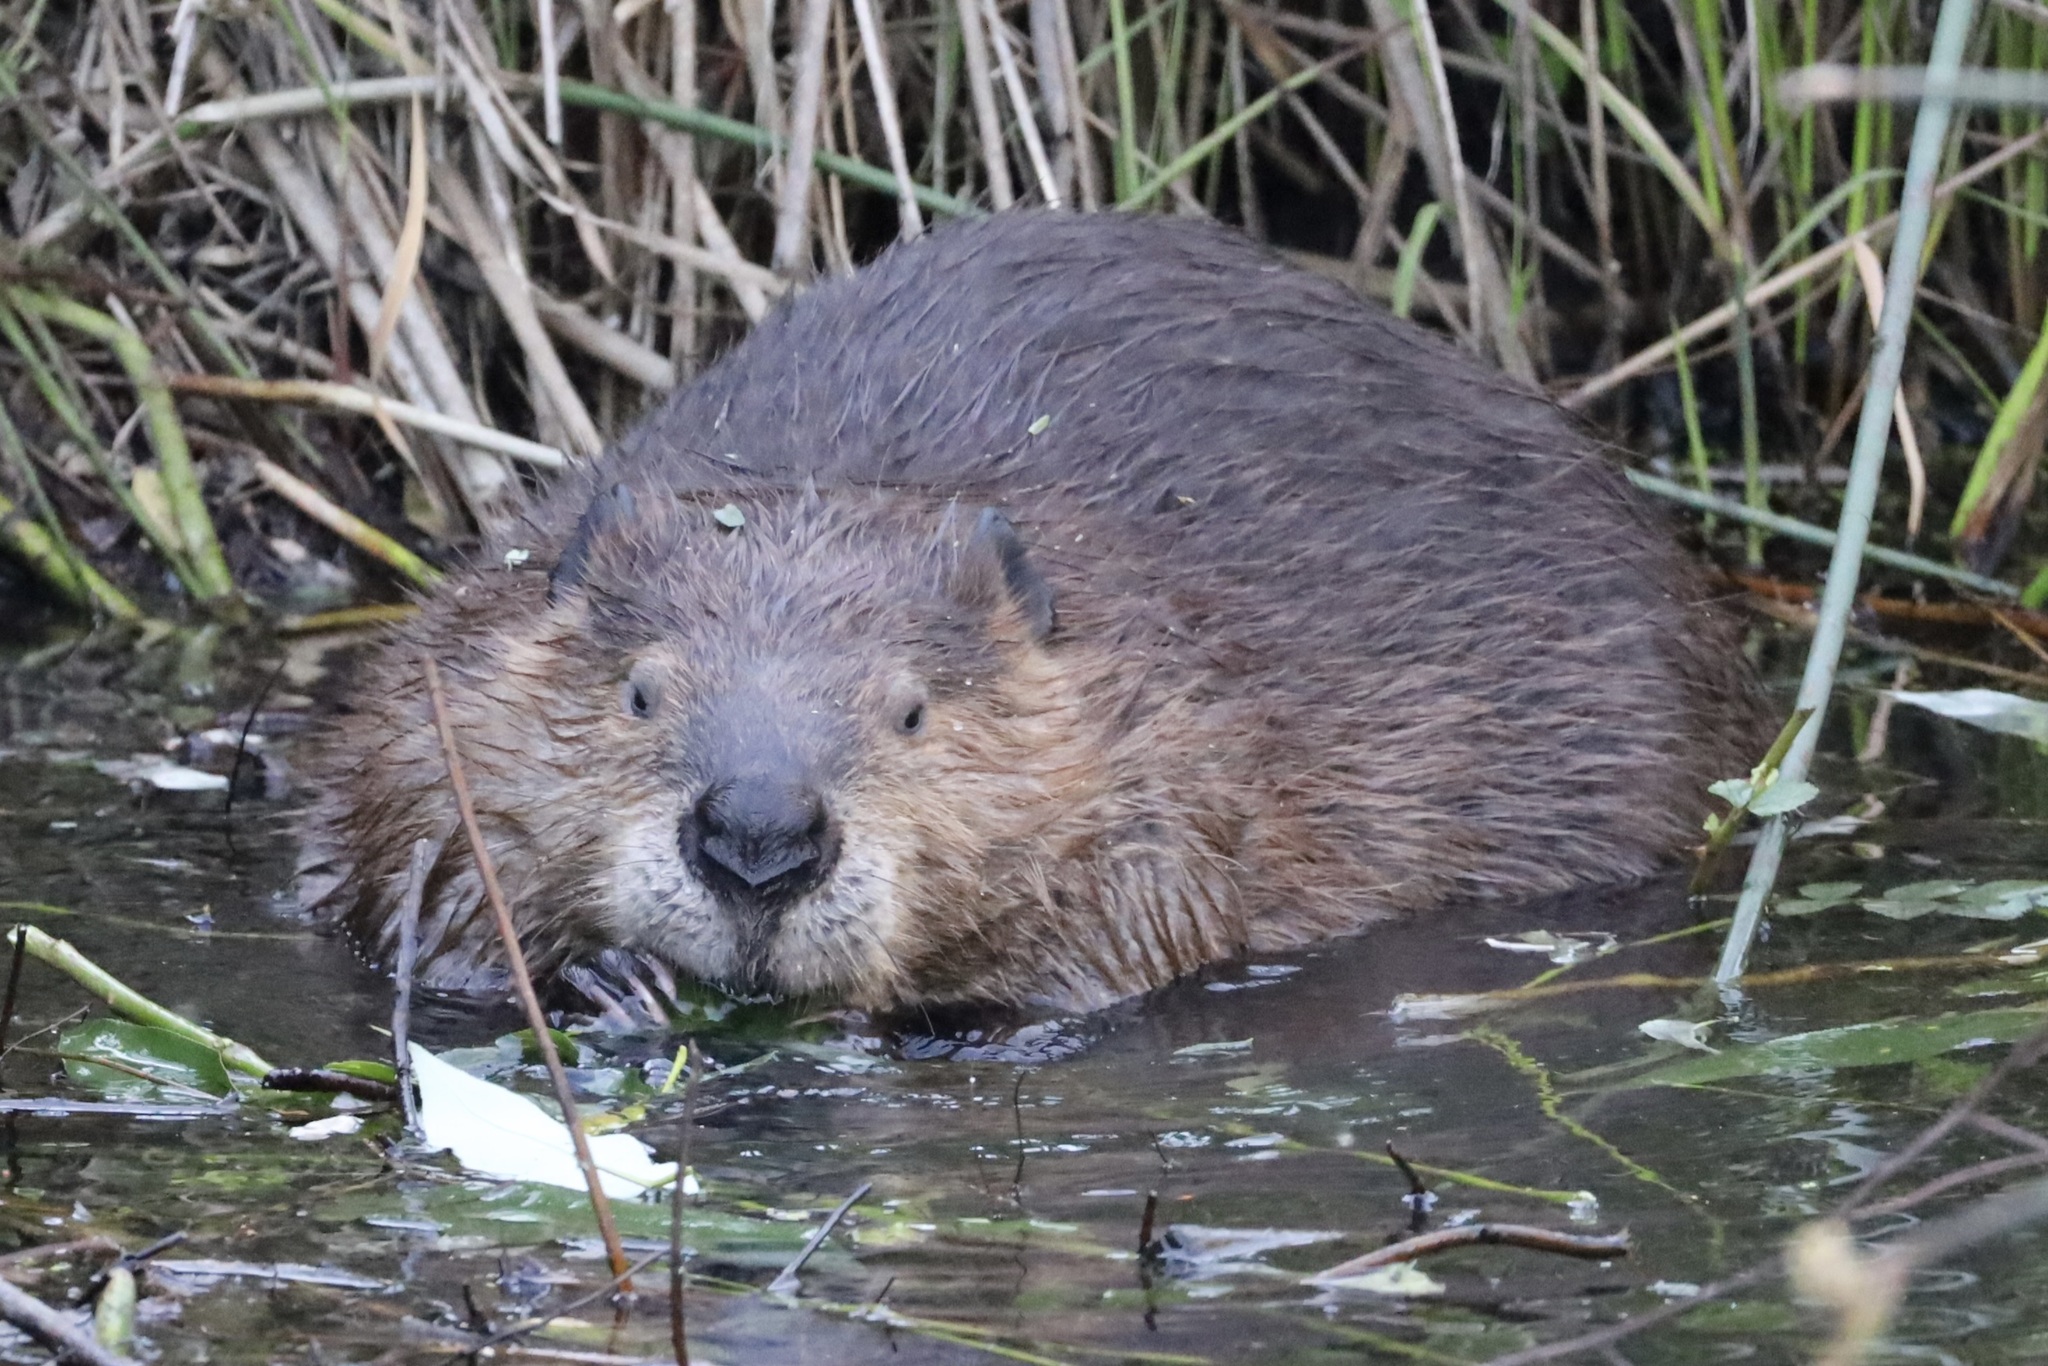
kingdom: Animalia
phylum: Chordata
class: Mammalia
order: Rodentia
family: Castoridae
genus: Castor
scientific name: Castor canadensis
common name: American beaver
